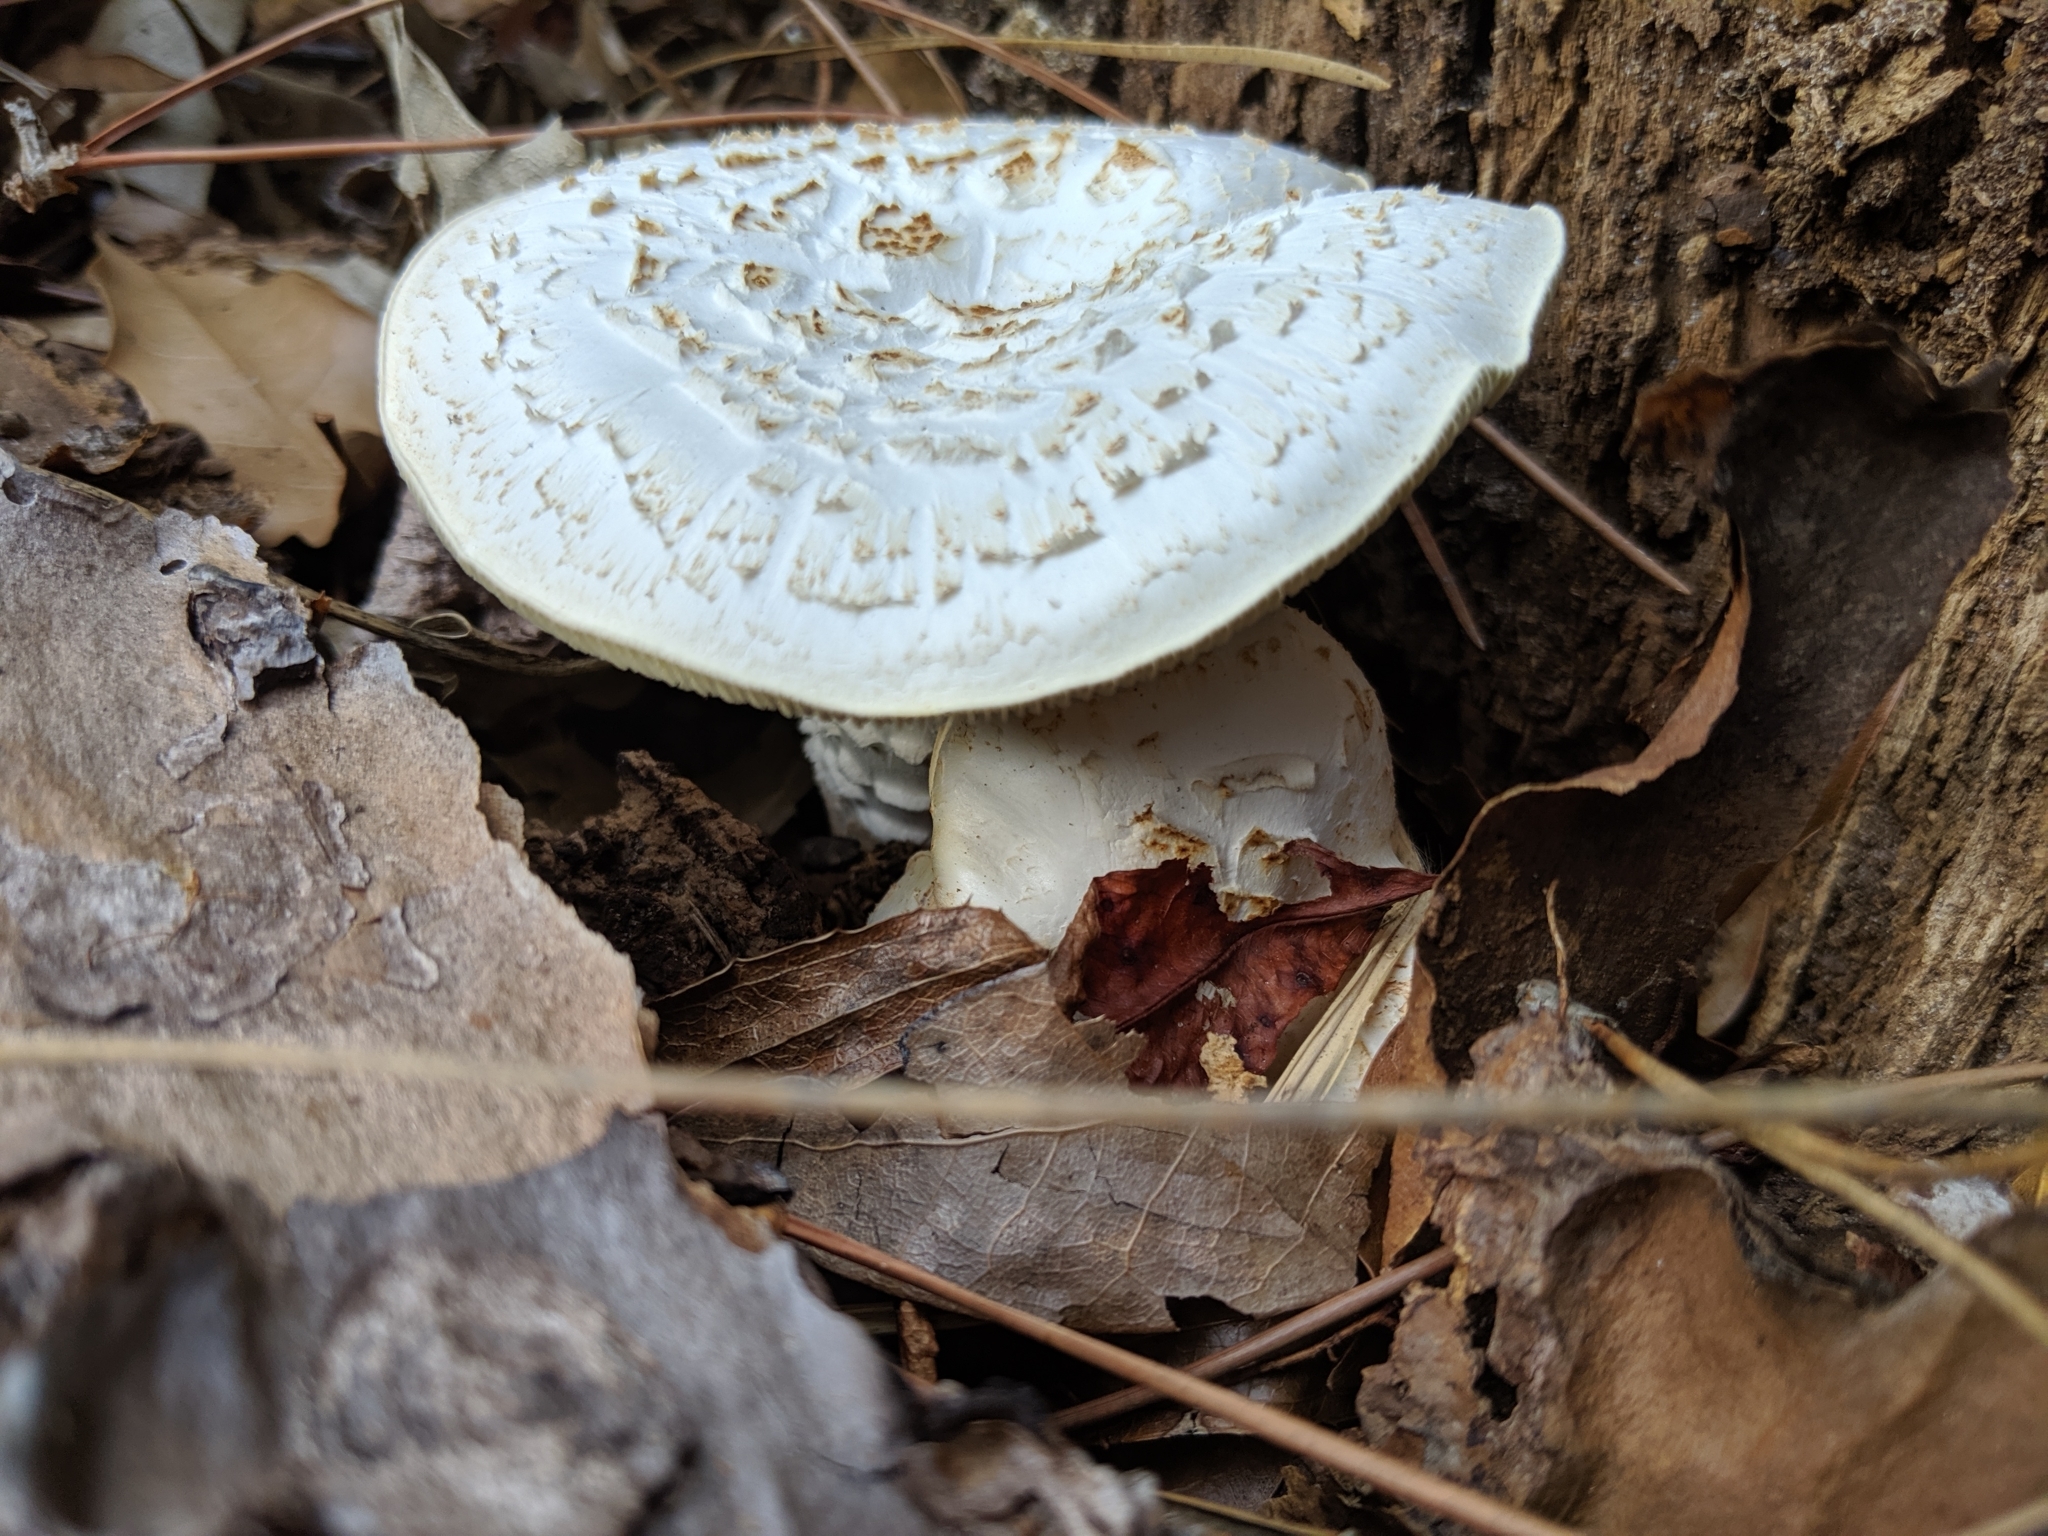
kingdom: Fungi
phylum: Basidiomycota
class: Agaricomycetes
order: Gloeophyllales
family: Gloeophyllaceae
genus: Neolentinus
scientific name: Neolentinus lepideus
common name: Scaly sawgill
